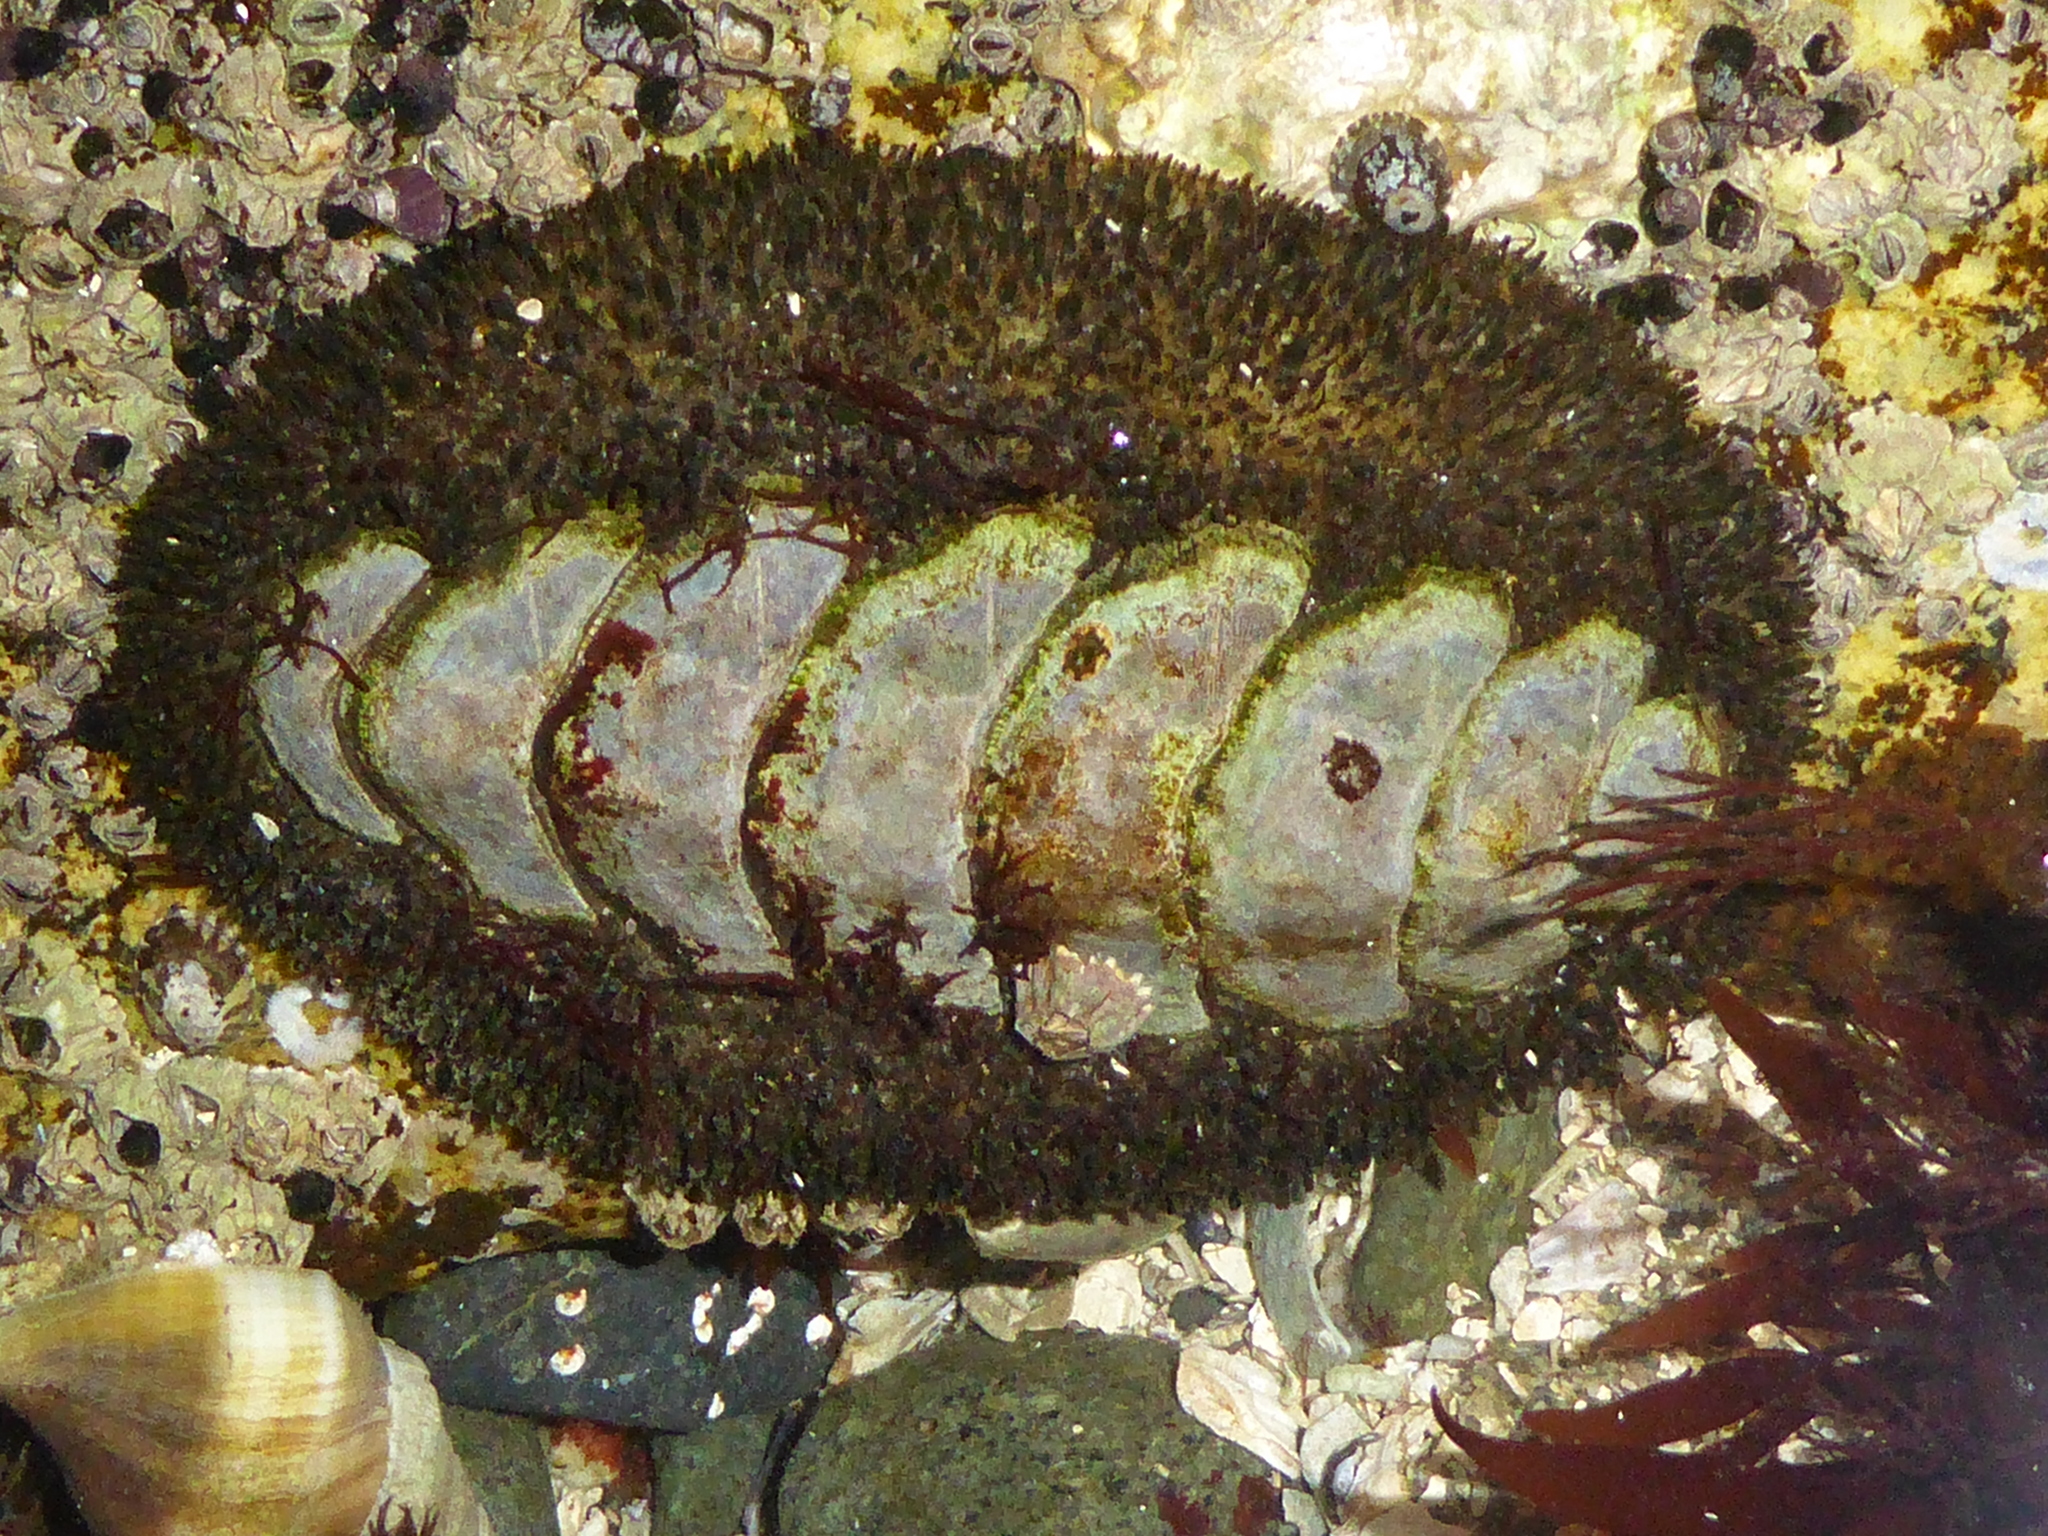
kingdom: Animalia
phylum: Mollusca
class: Polyplacophora
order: Chitonida
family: Mopaliidae
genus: Mopalia
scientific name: Mopalia muscosa
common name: Mossy chiton
